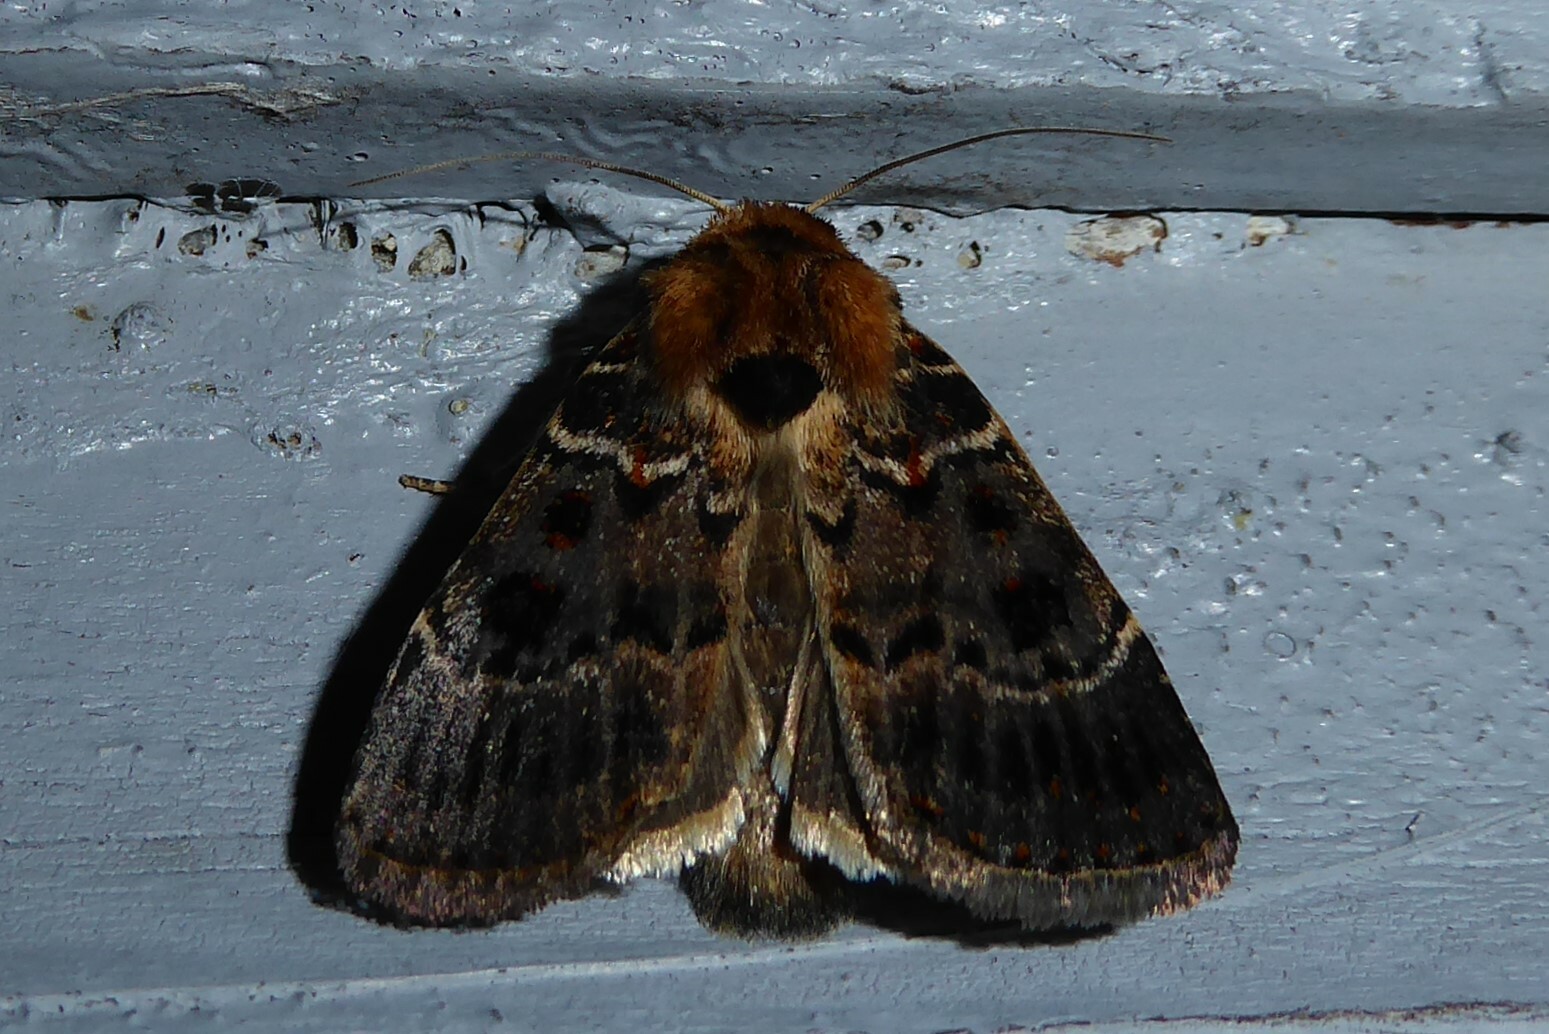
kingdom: Animalia
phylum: Arthropoda
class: Insecta
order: Lepidoptera
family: Noctuidae
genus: Proteuxoa
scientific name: Proteuxoa sanguinipuncta
